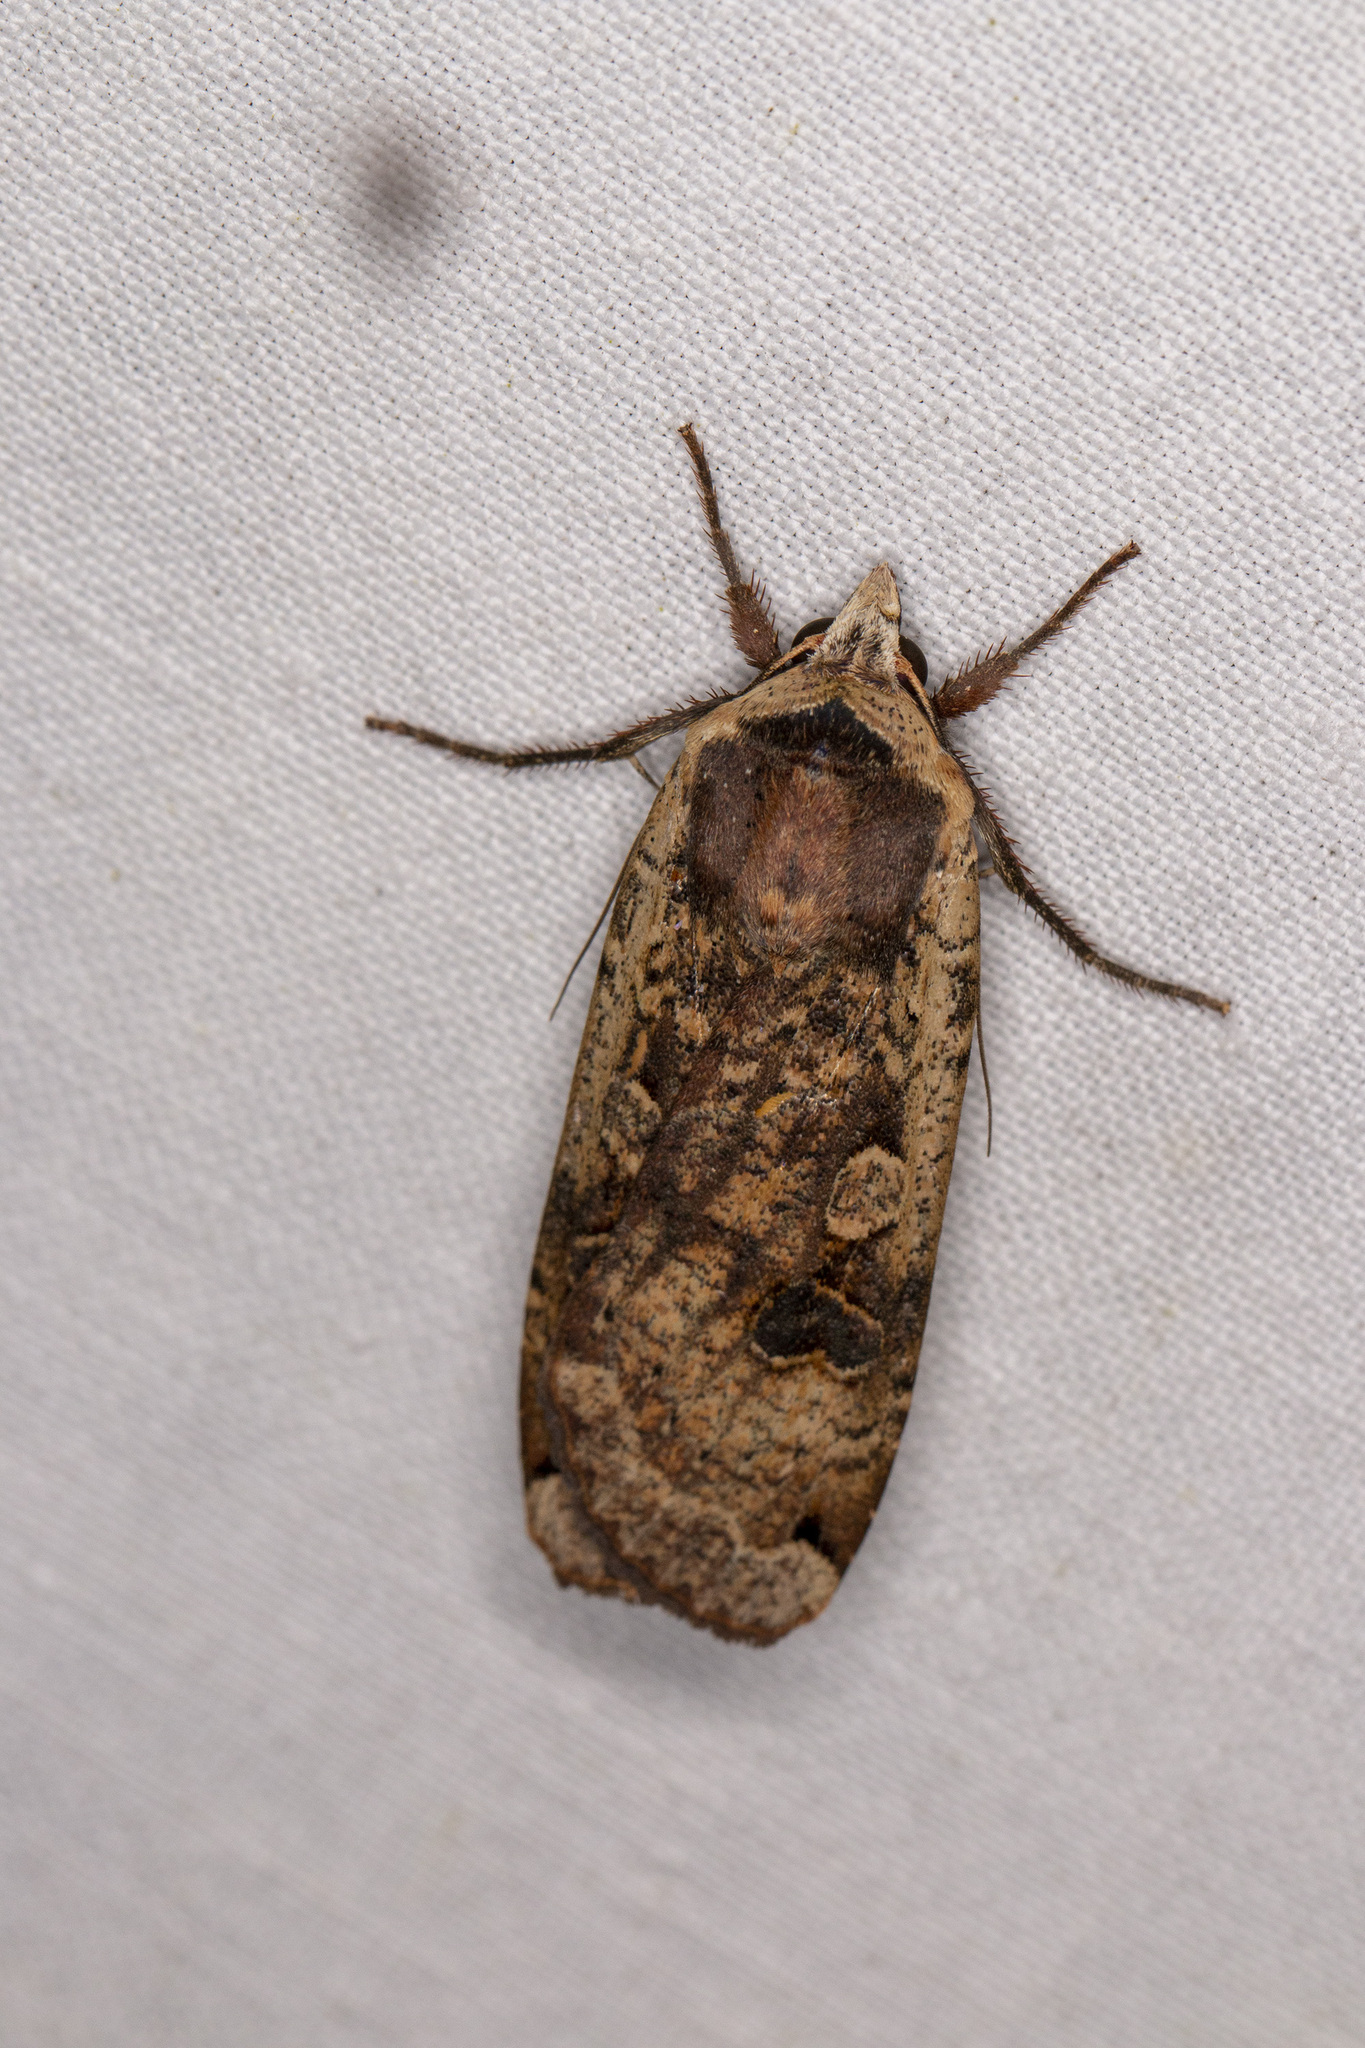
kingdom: Animalia
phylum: Arthropoda
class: Insecta
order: Lepidoptera
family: Noctuidae
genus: Noctua
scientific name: Noctua pronuba
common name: Large yellow underwing
